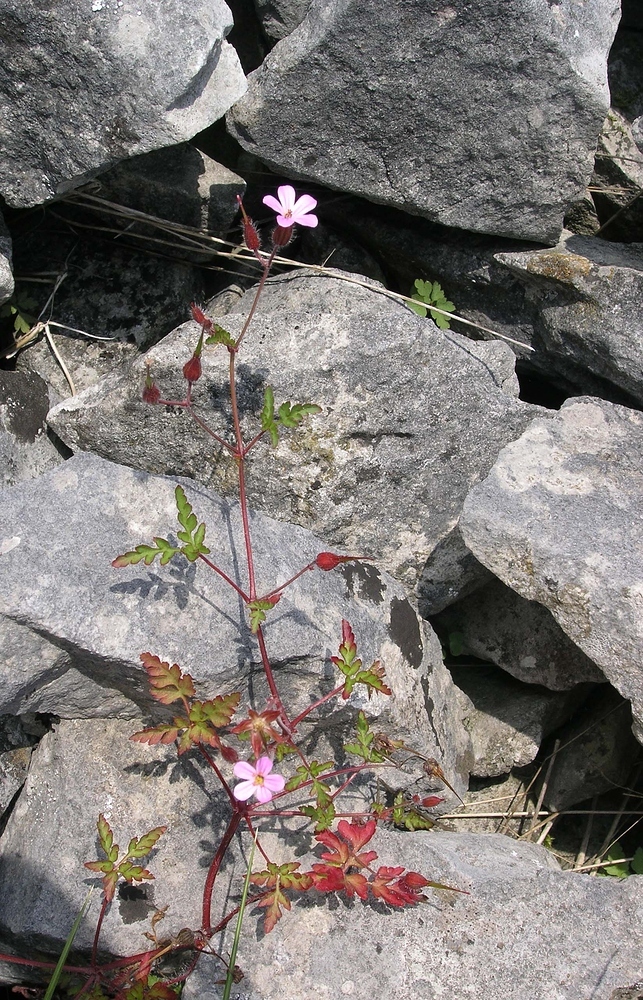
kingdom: Plantae
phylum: Tracheophyta
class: Magnoliopsida
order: Geraniales
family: Geraniaceae
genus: Geranium
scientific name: Geranium robertianum
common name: Herb-robert
